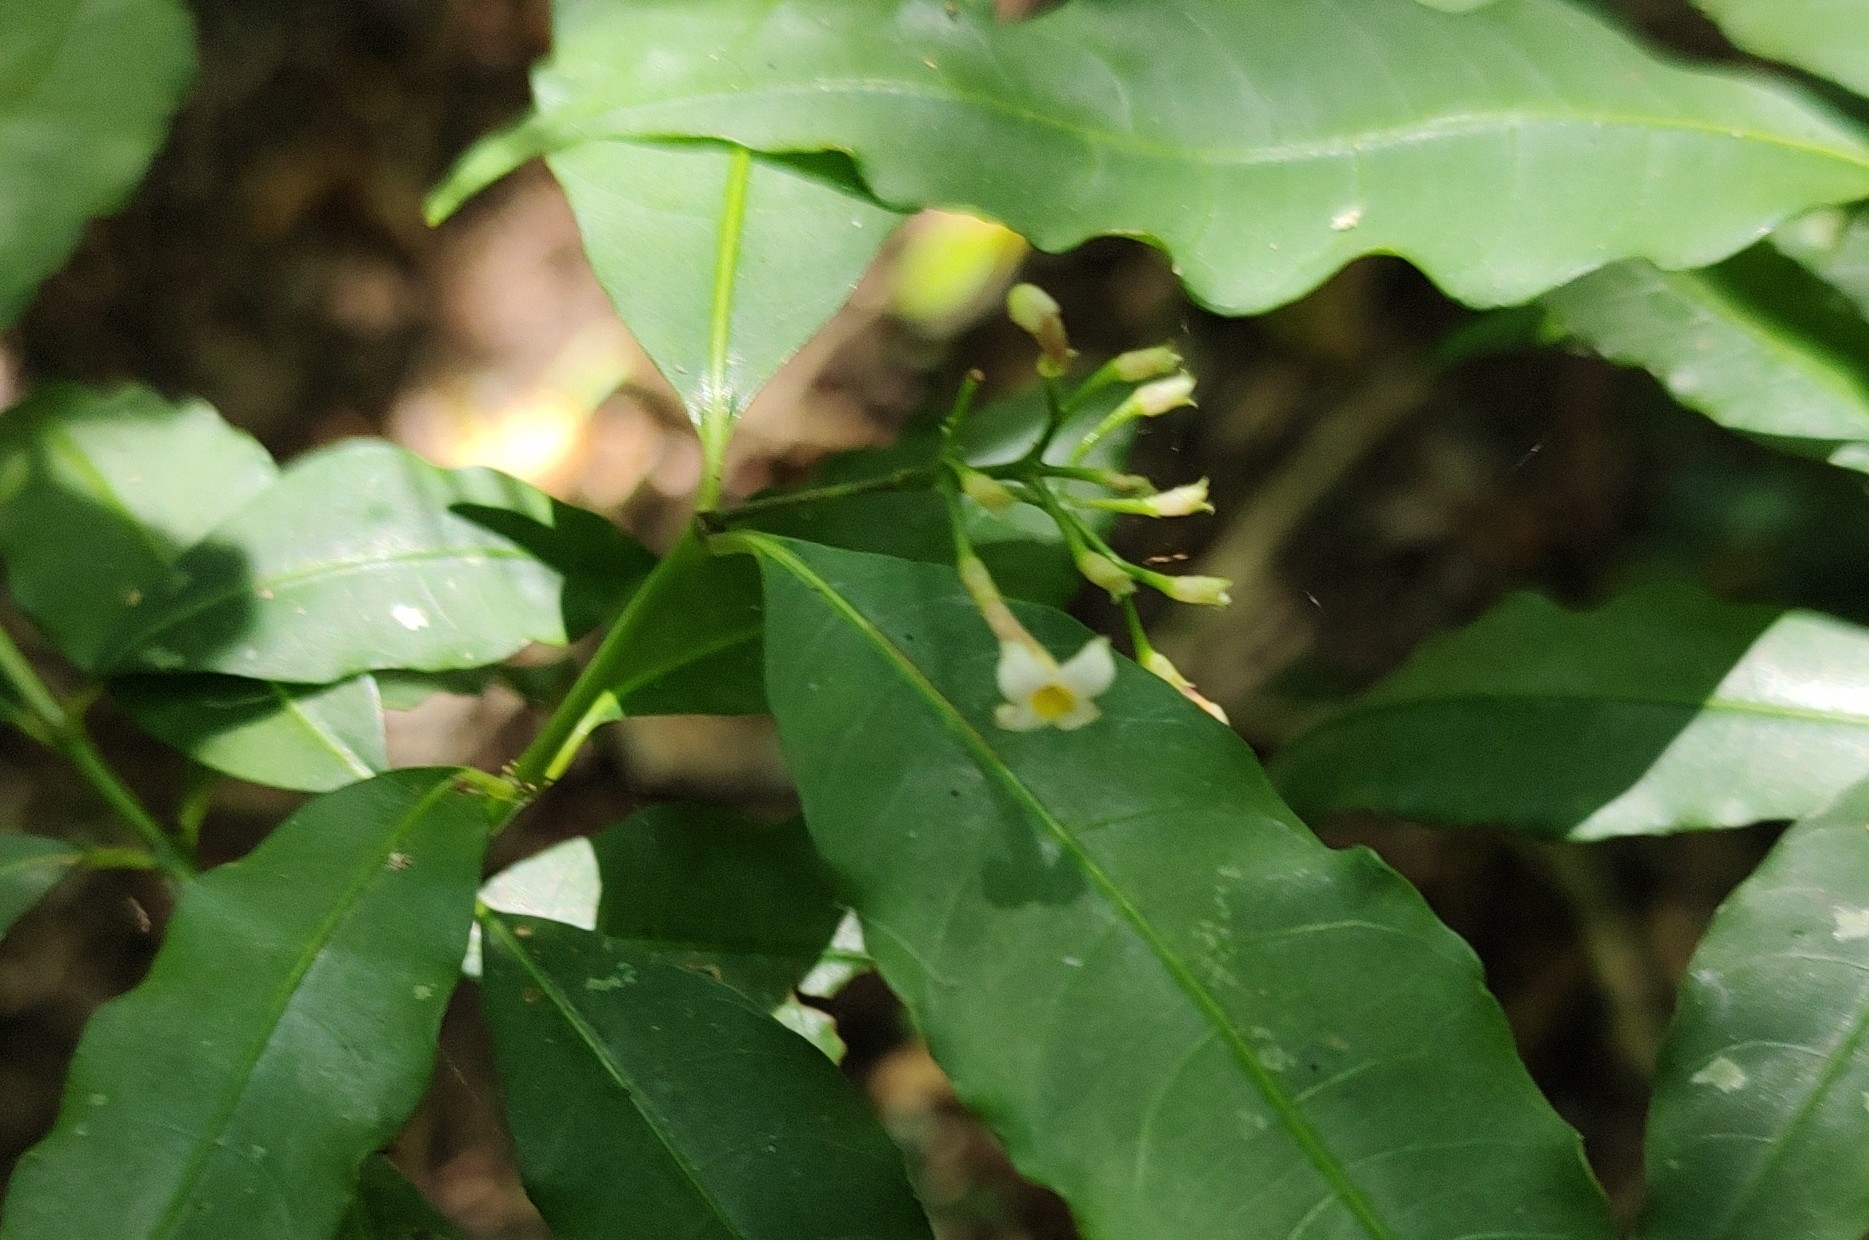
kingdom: Plantae
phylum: Tracheophyta
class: Magnoliopsida
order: Gentianales
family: Rubiaceae
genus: Psychotria
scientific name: Psychotria leiocarpa
